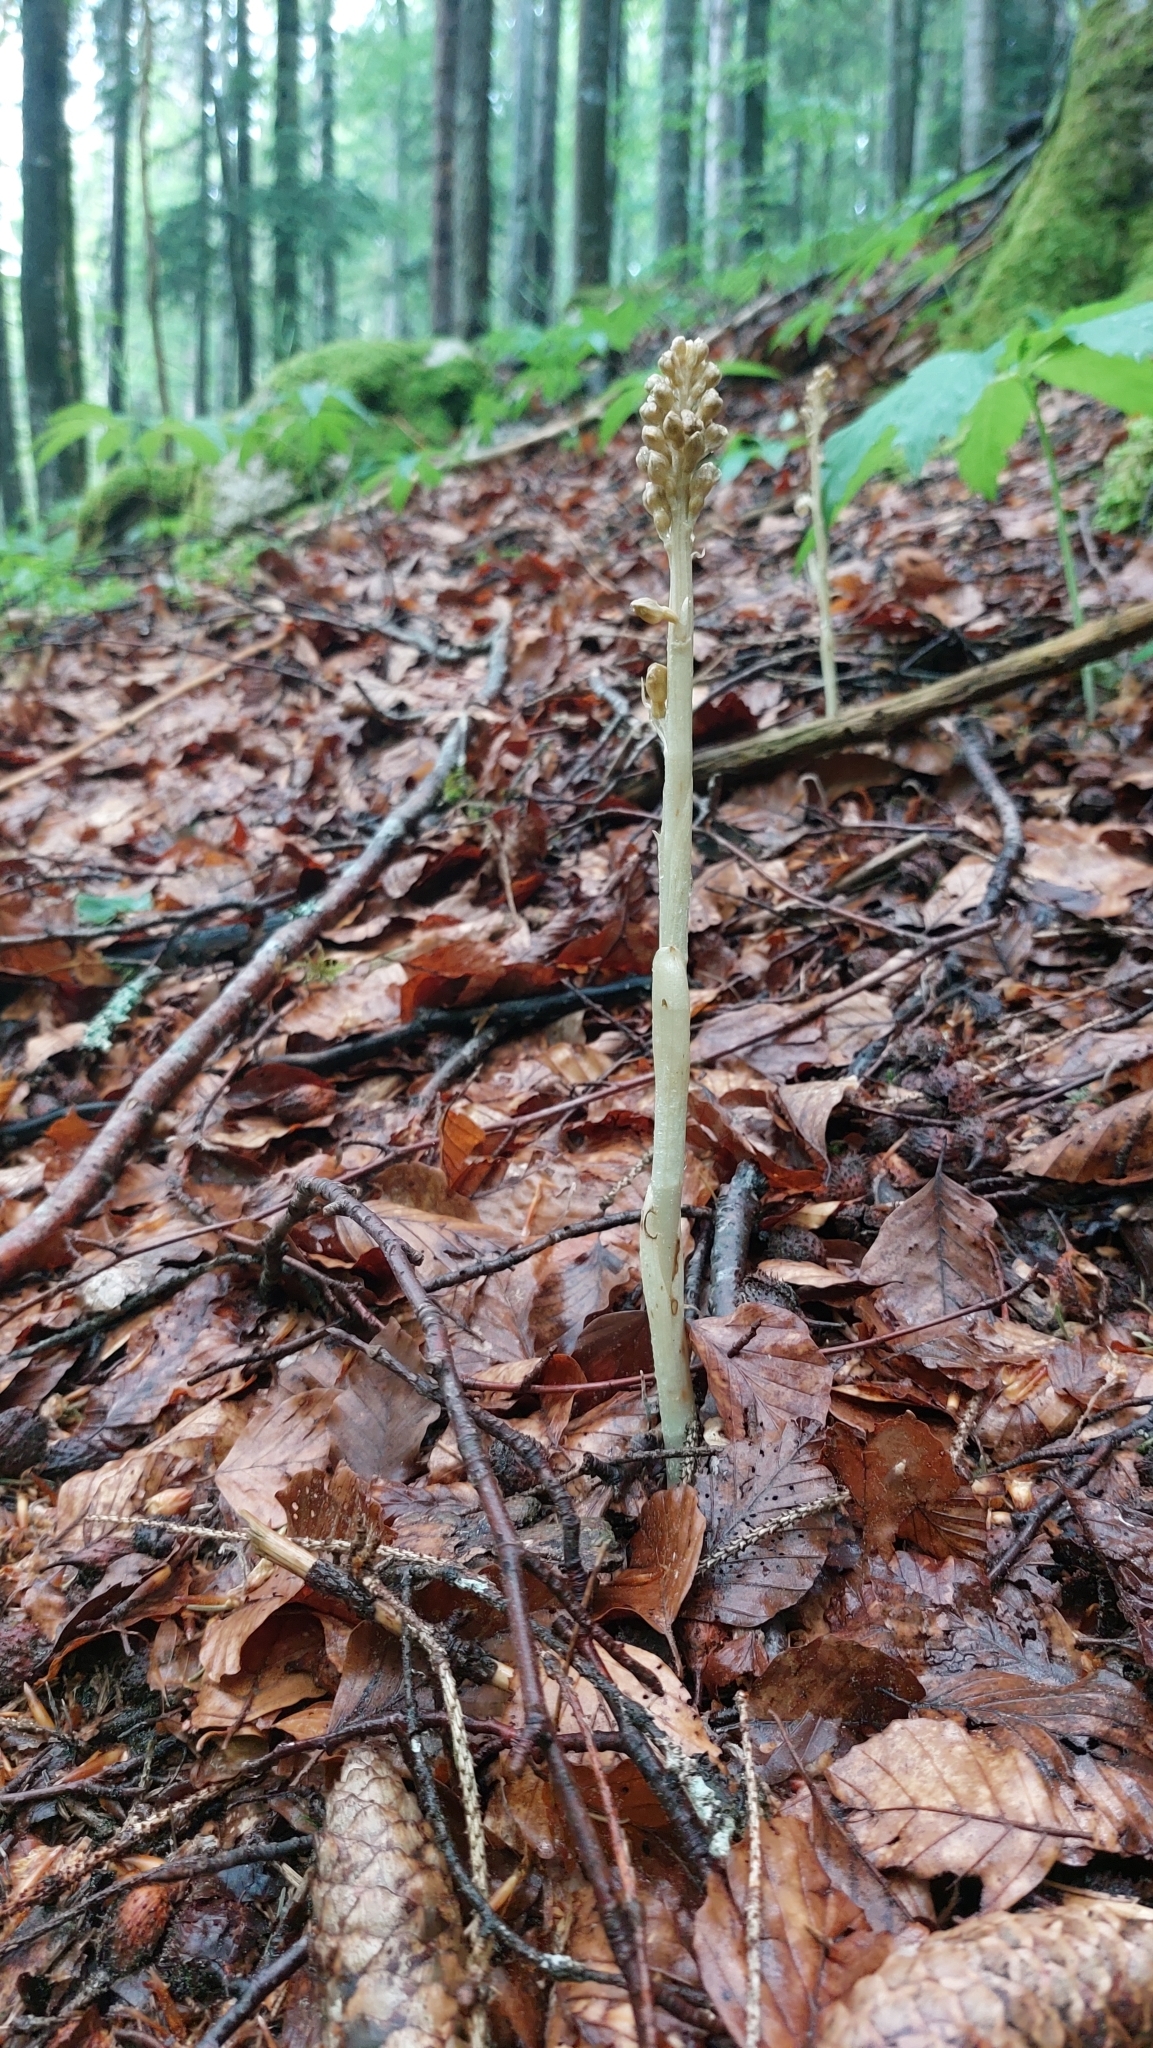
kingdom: Plantae
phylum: Tracheophyta
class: Liliopsida
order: Asparagales
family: Orchidaceae
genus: Neottia
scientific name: Neottia nidus-avis
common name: Bird's-nest orchid
